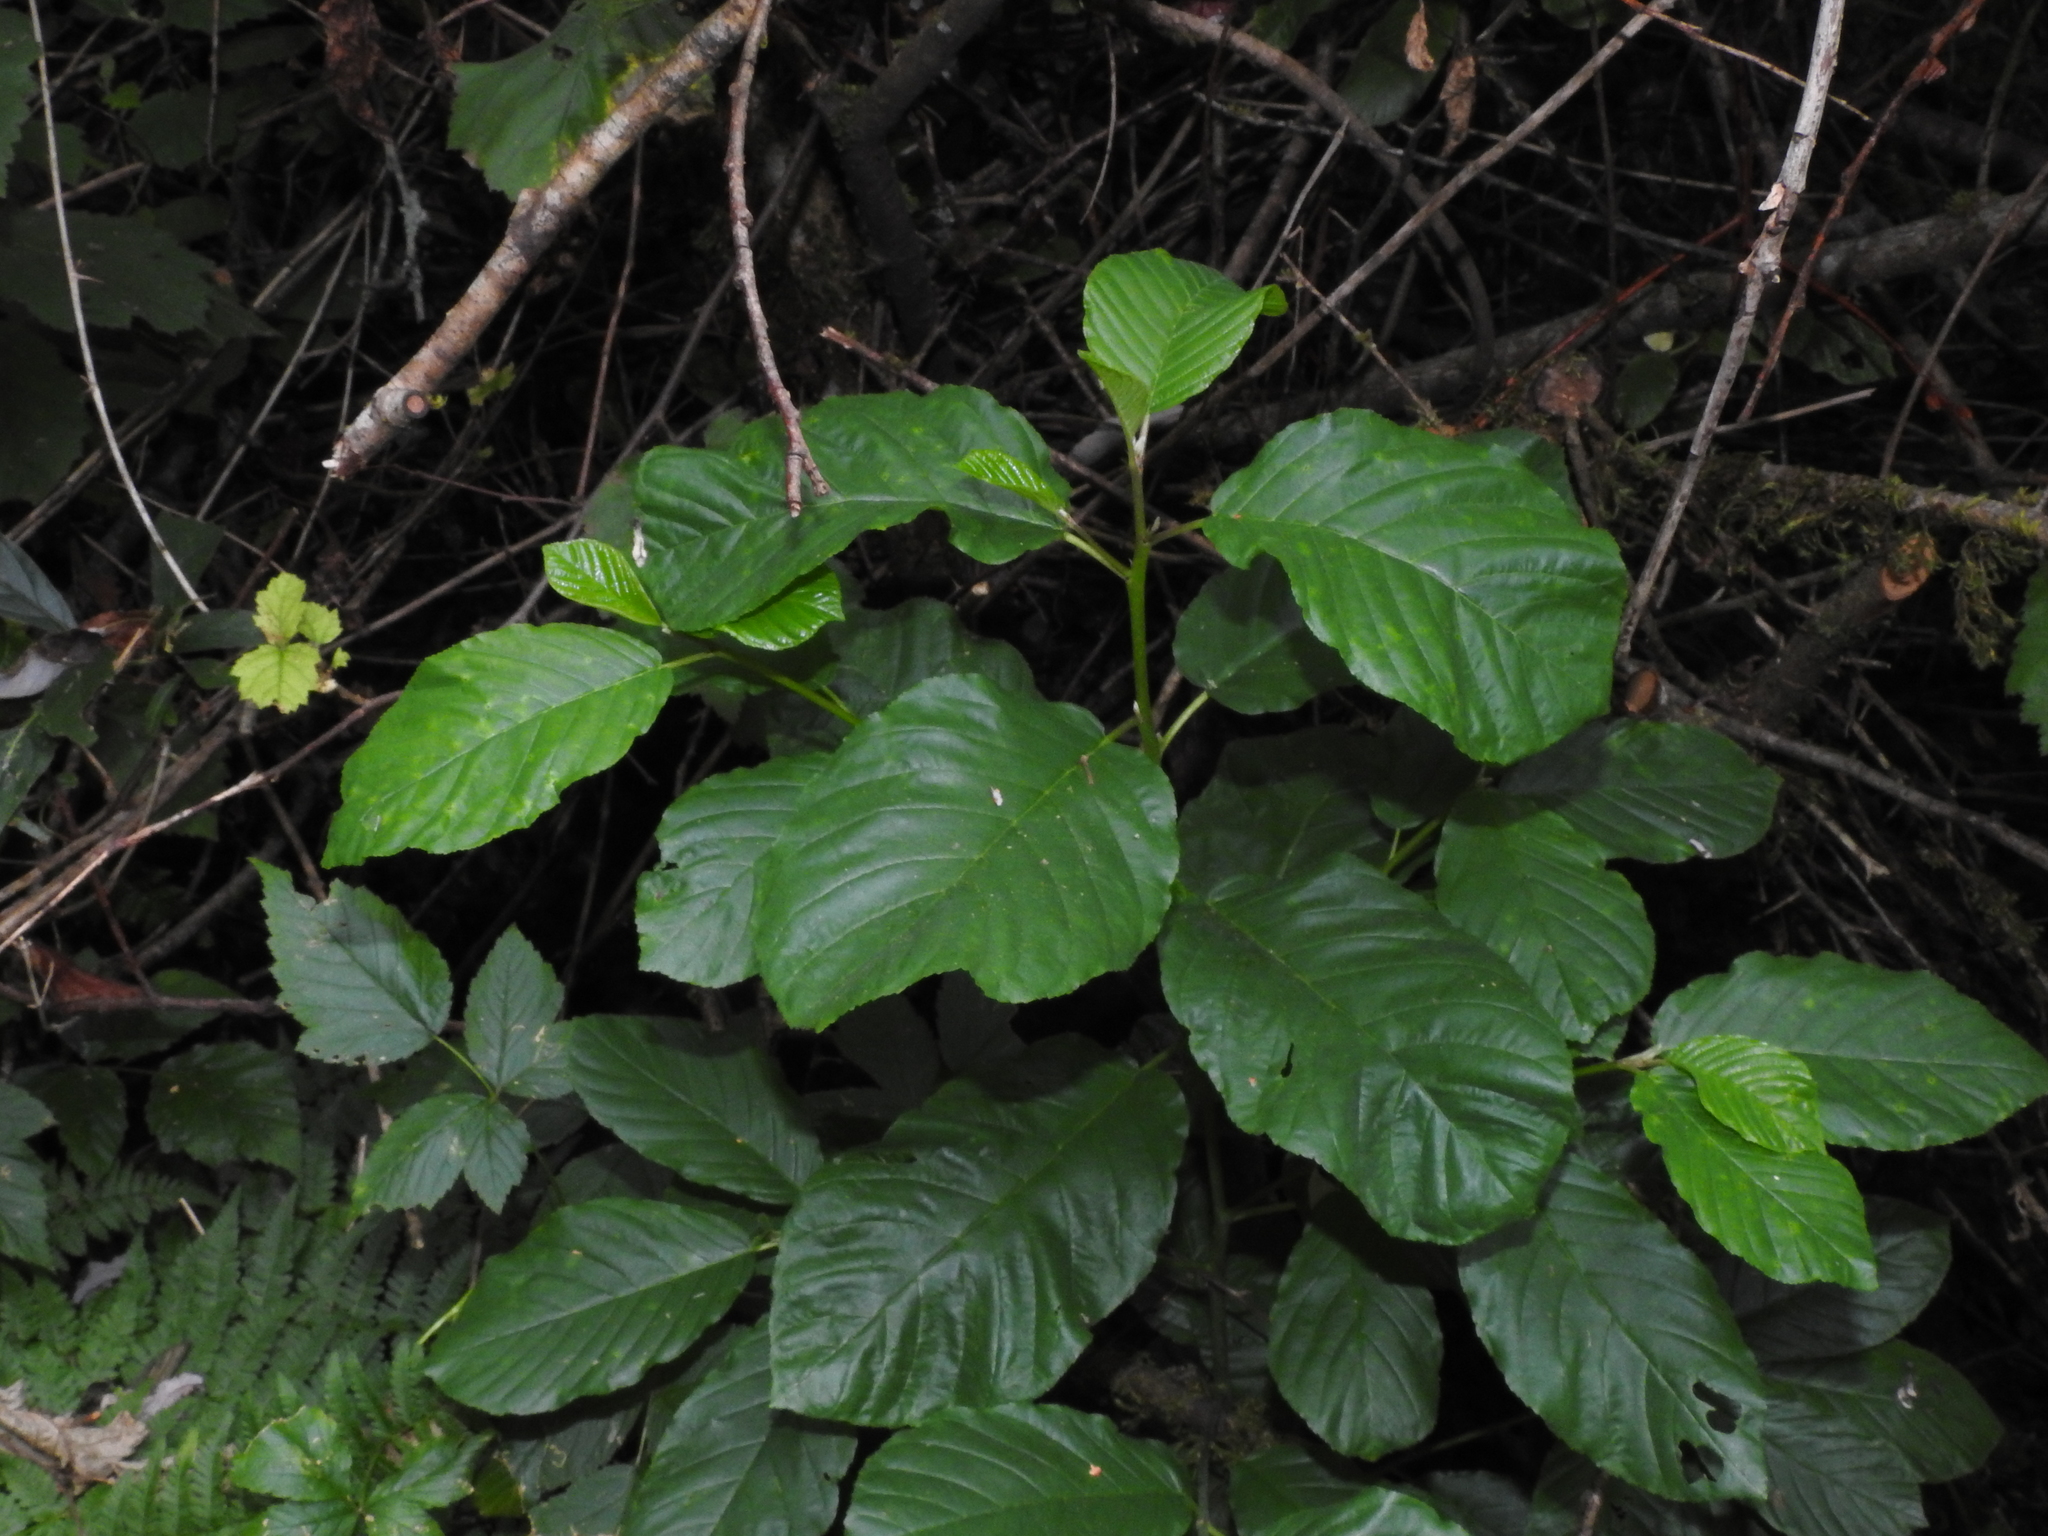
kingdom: Plantae
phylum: Tracheophyta
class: Magnoliopsida
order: Rosales
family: Rhamnaceae
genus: Frangula
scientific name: Frangula purshiana
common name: Cascara buckthorn
